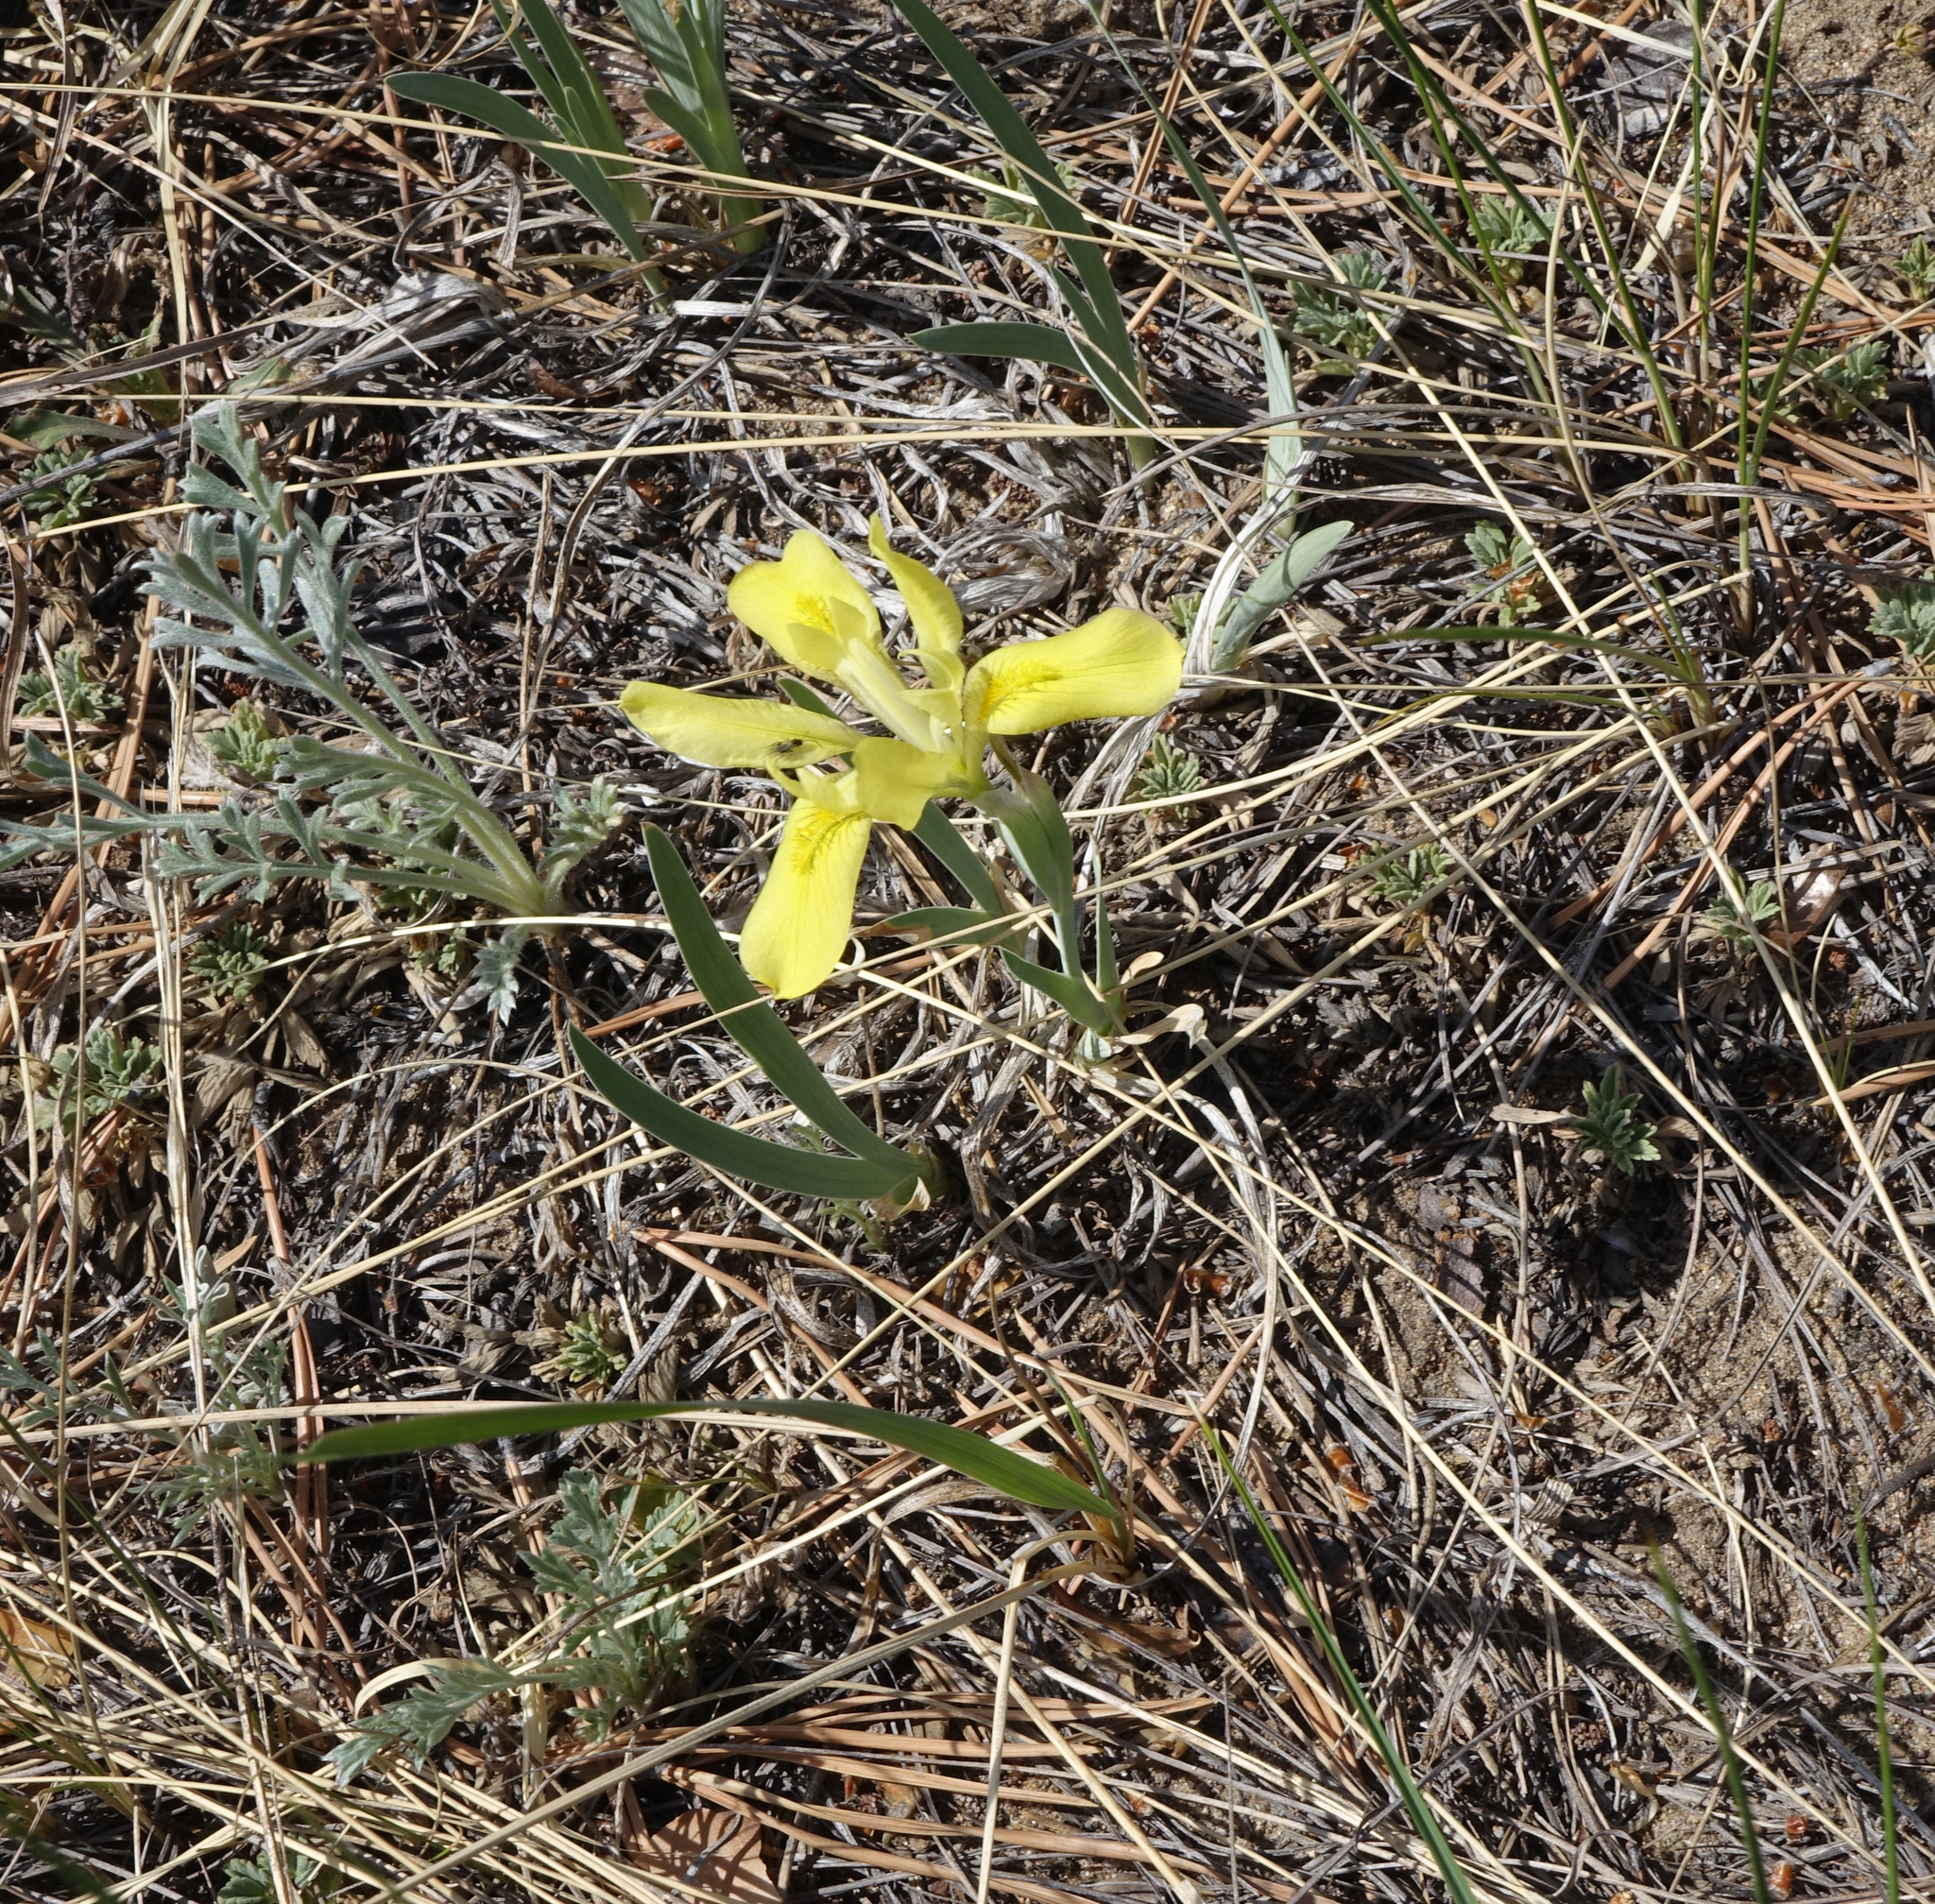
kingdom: Plantae
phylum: Tracheophyta
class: Liliopsida
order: Asparagales
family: Iridaceae
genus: Iris
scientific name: Iris humilis
